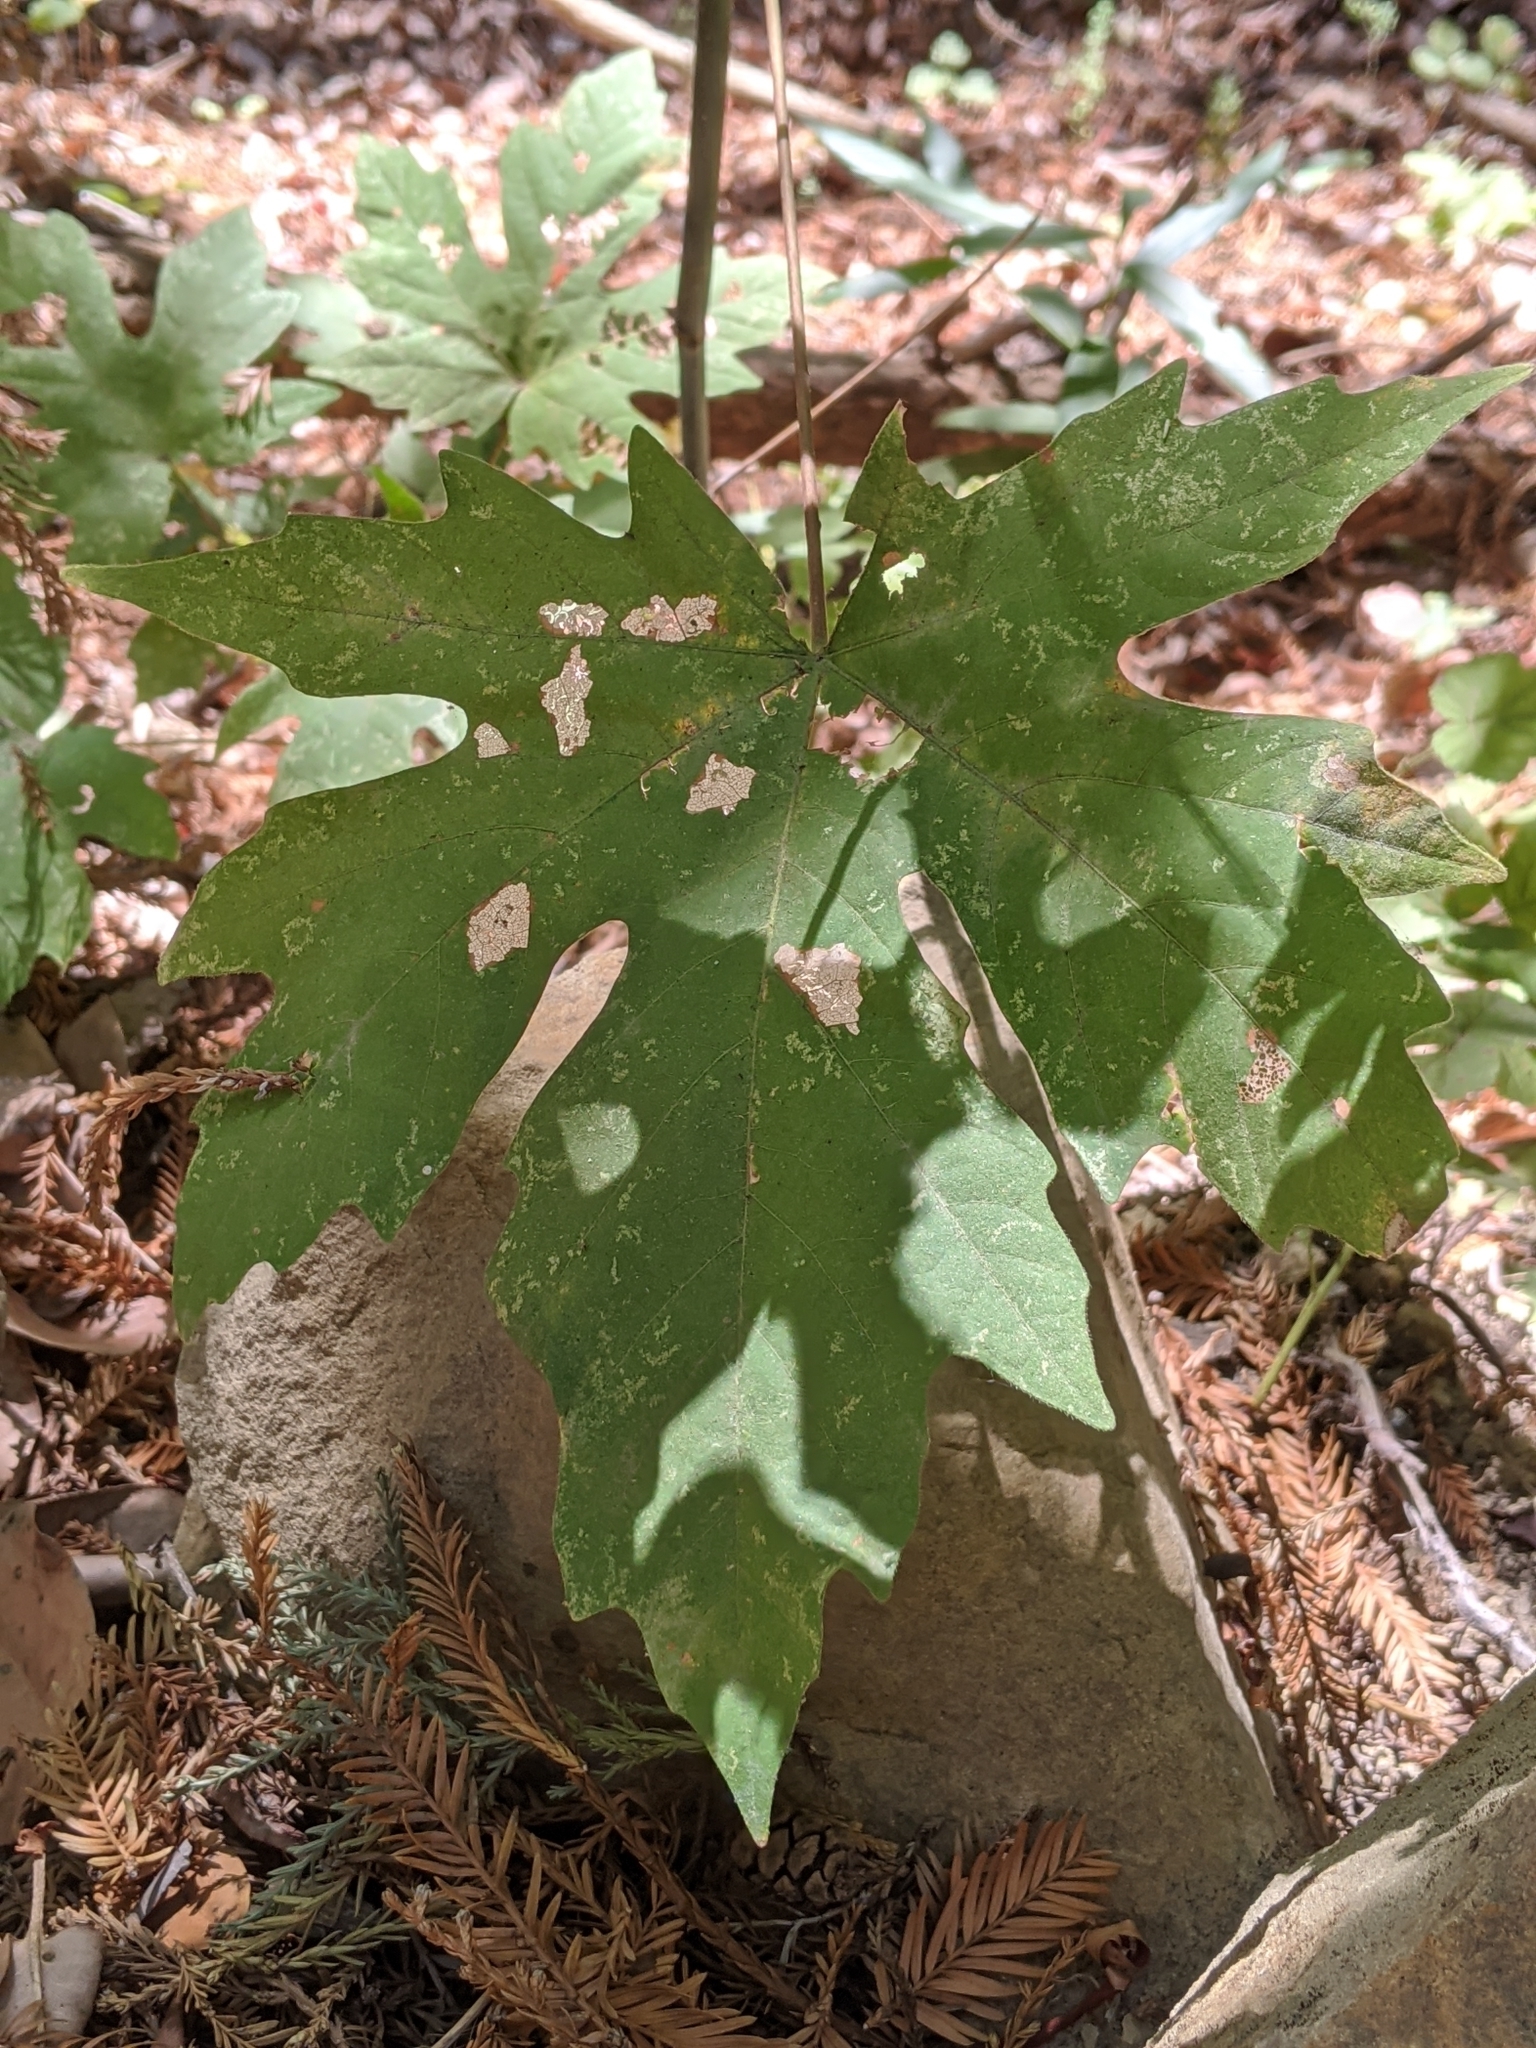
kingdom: Plantae
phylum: Tracheophyta
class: Magnoliopsida
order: Sapindales
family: Sapindaceae
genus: Acer
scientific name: Acer macrophyllum
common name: Oregon maple
